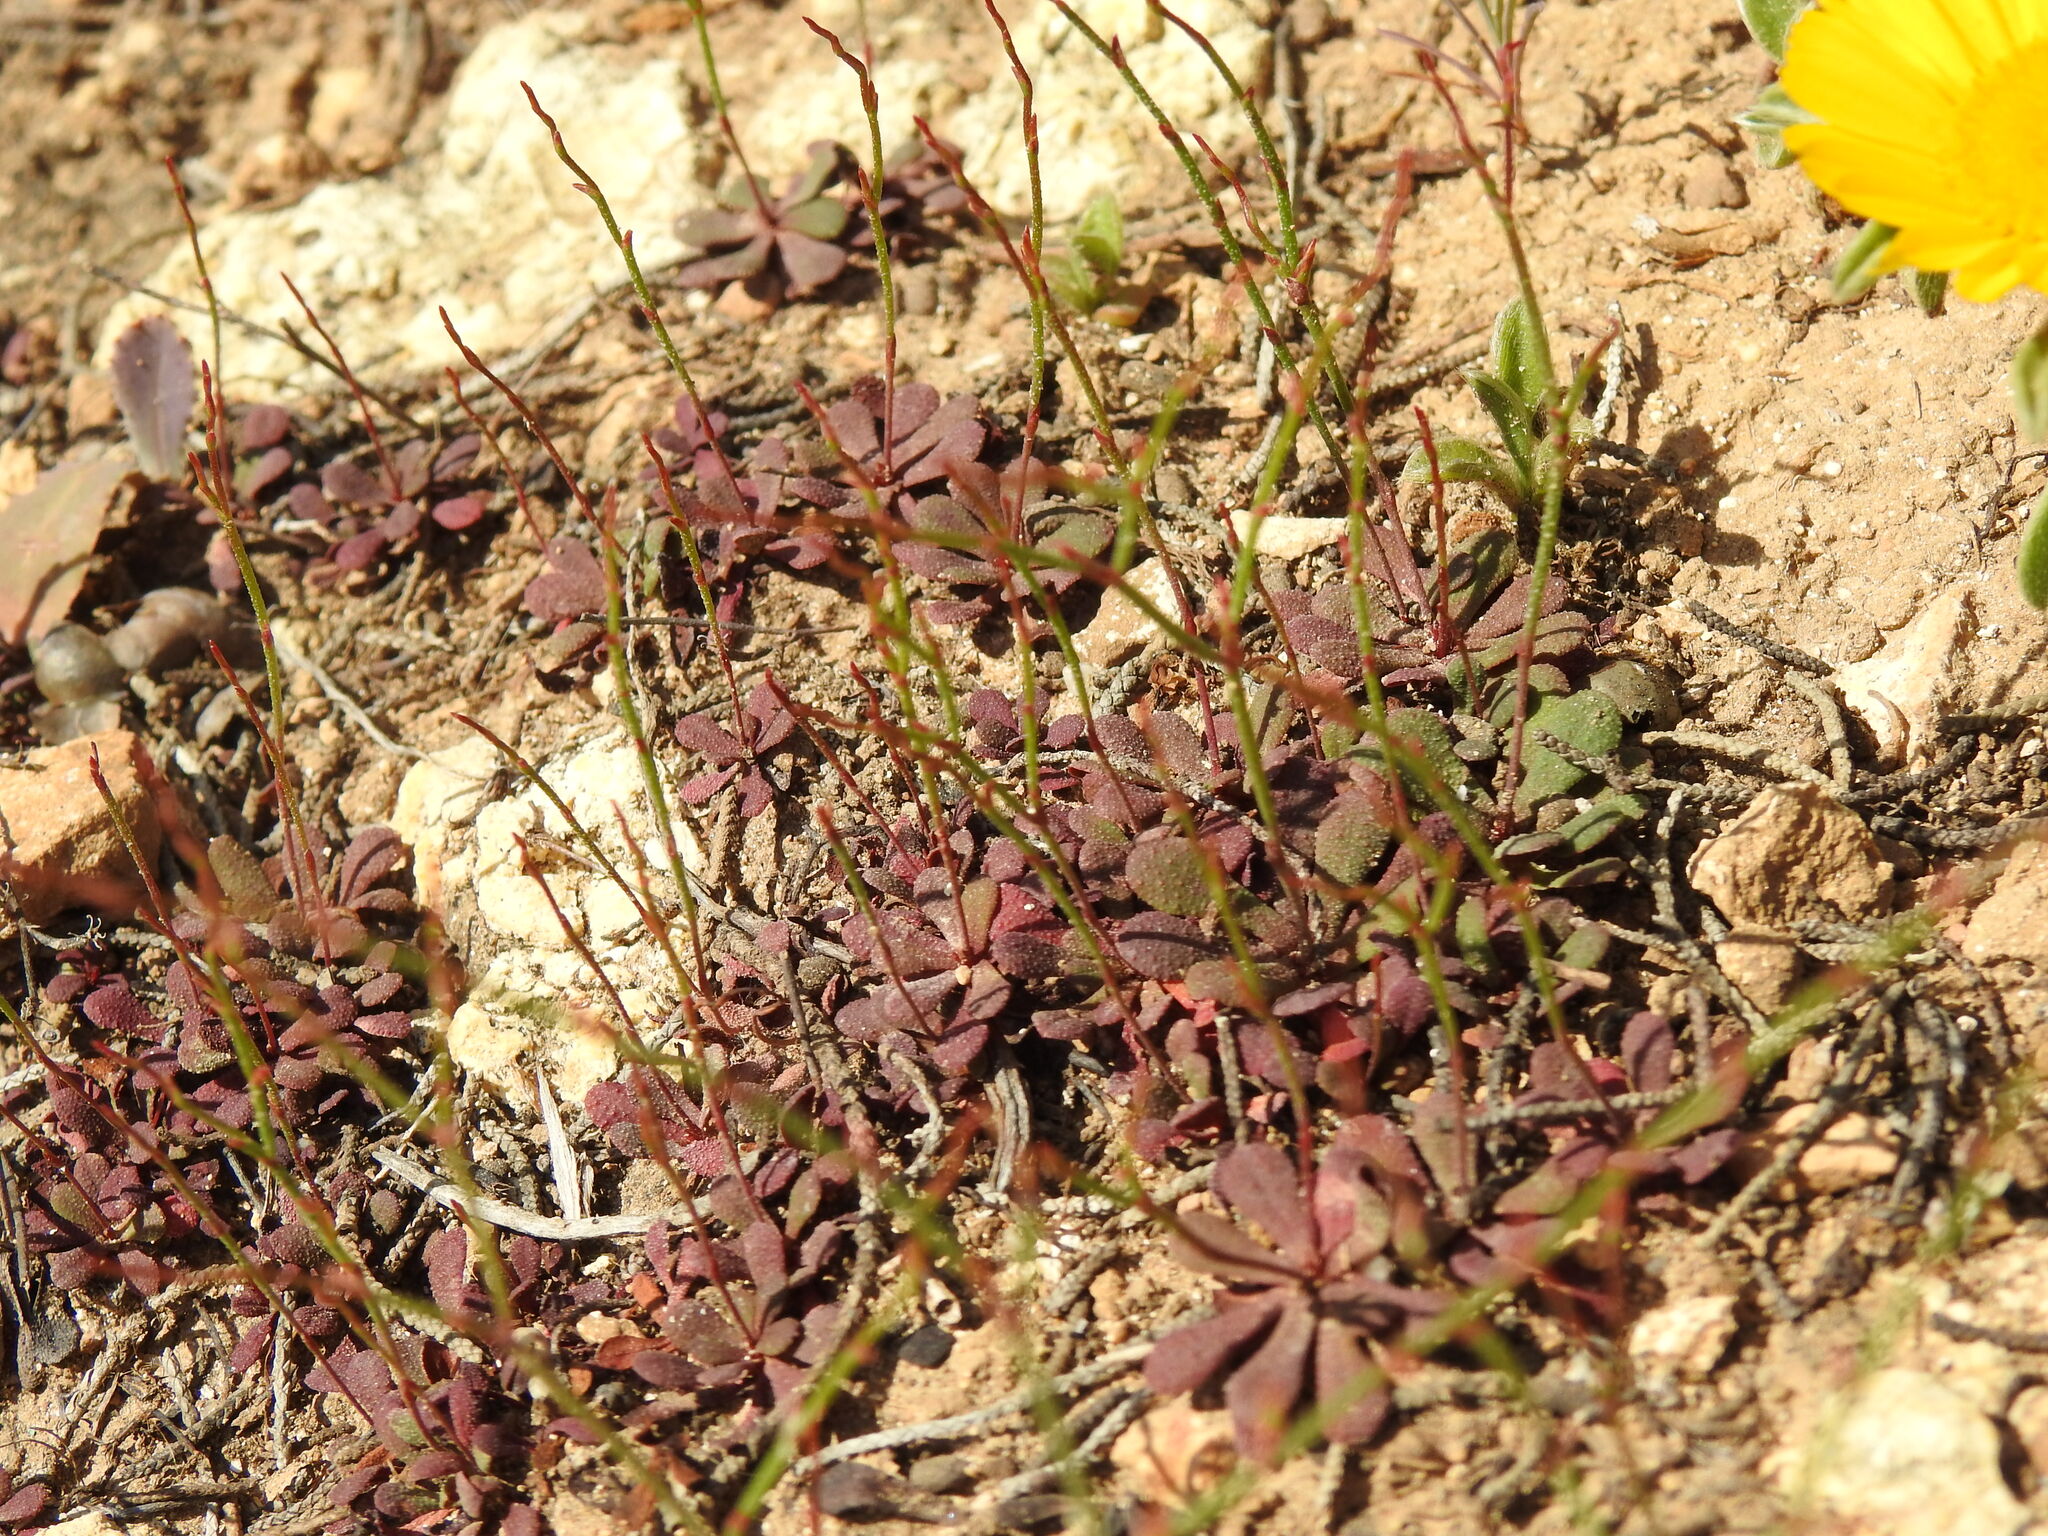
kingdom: Plantae
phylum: Tracheophyta
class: Magnoliopsida
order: Caryophyllales
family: Plumbaginaceae
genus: Limonium
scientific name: Limonium echioides
